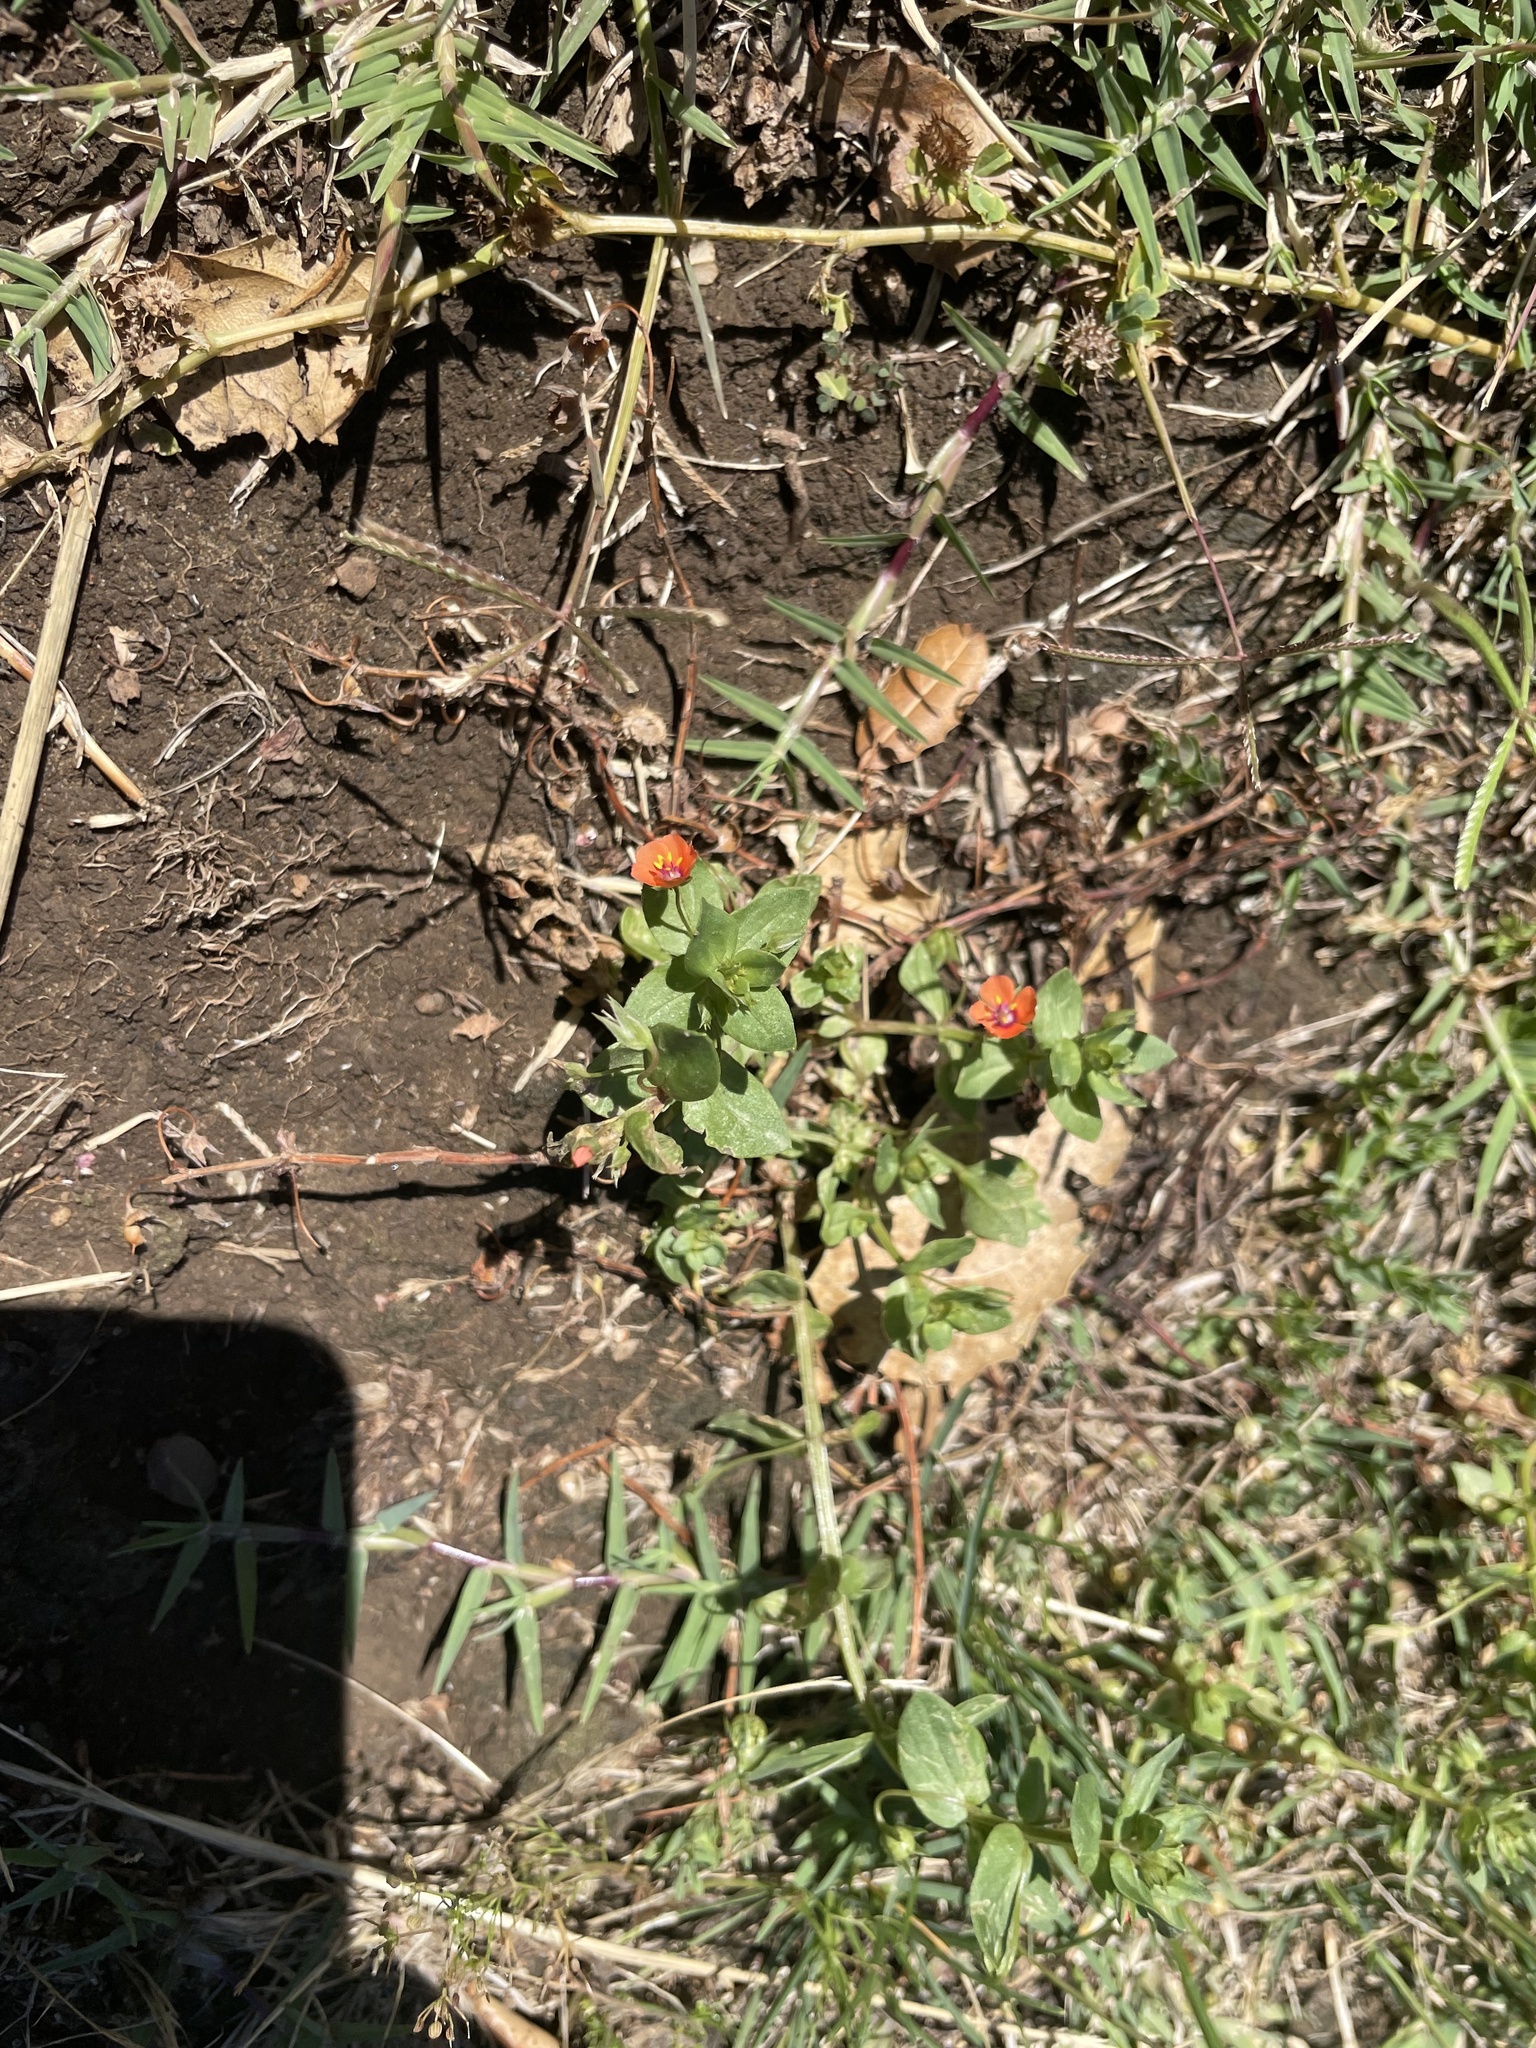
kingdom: Plantae
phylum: Tracheophyta
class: Magnoliopsida
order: Ericales
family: Primulaceae
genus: Lysimachia
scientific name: Lysimachia arvensis
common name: Scarlet pimpernel
